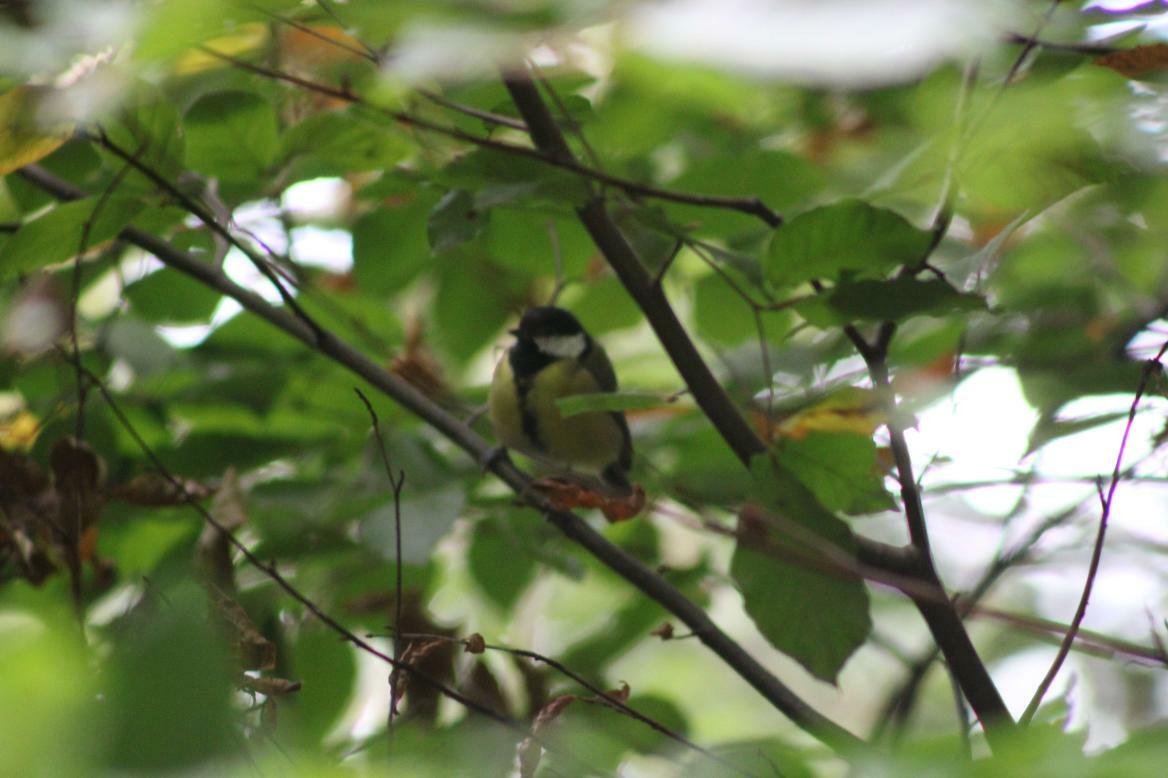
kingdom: Animalia
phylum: Chordata
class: Aves
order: Passeriformes
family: Paridae
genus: Parus
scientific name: Parus major
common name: Great tit
